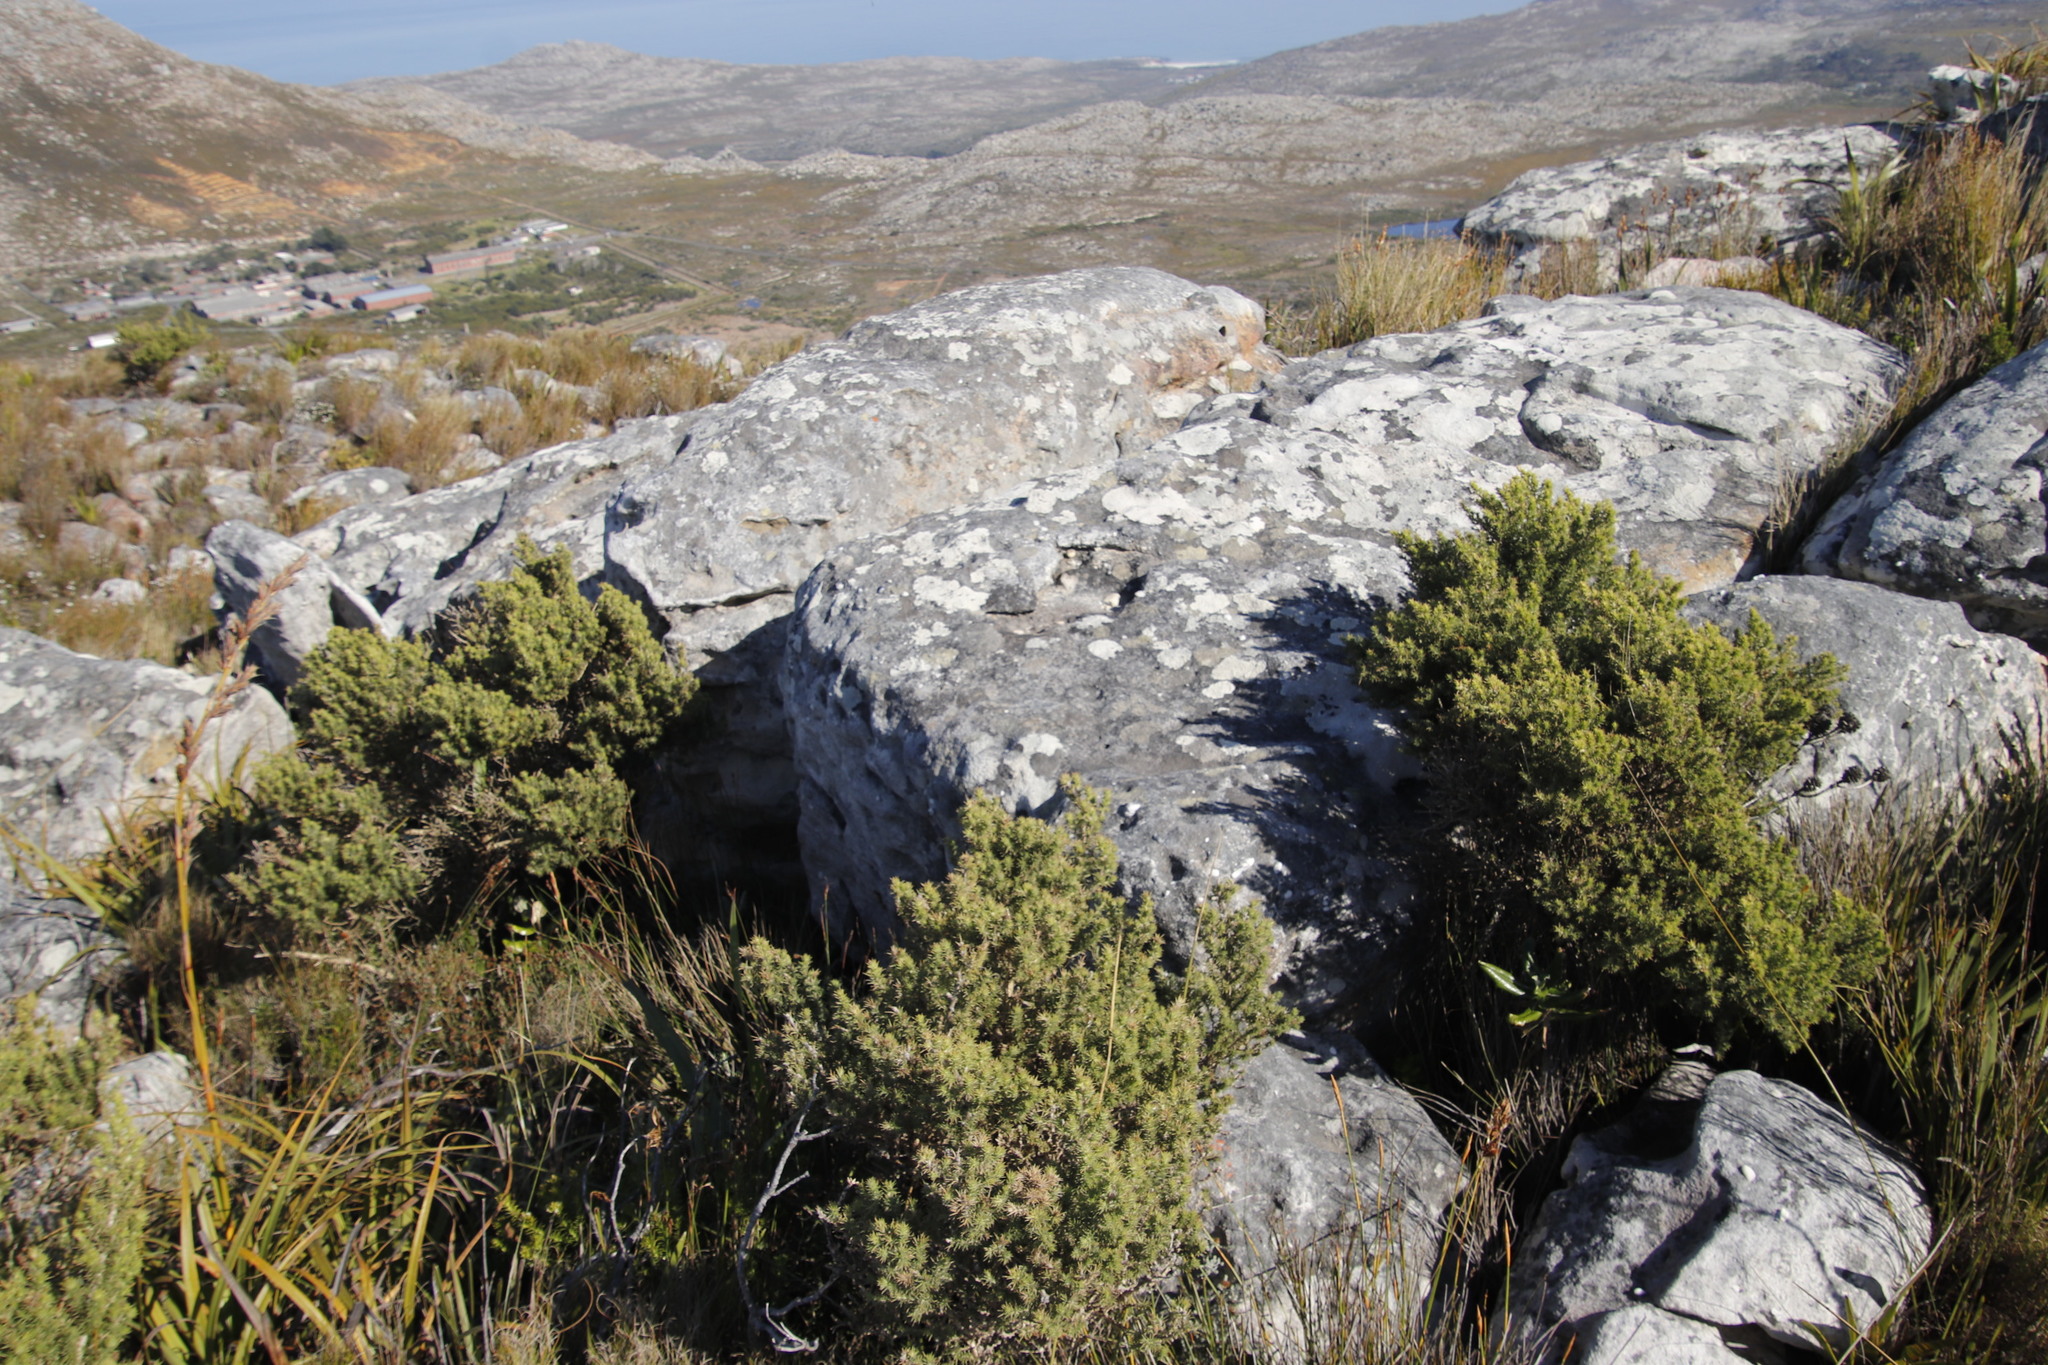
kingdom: Plantae
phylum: Tracheophyta
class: Magnoliopsida
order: Fabales
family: Fabaceae
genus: Aspalathus
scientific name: Aspalathus chenopoda
